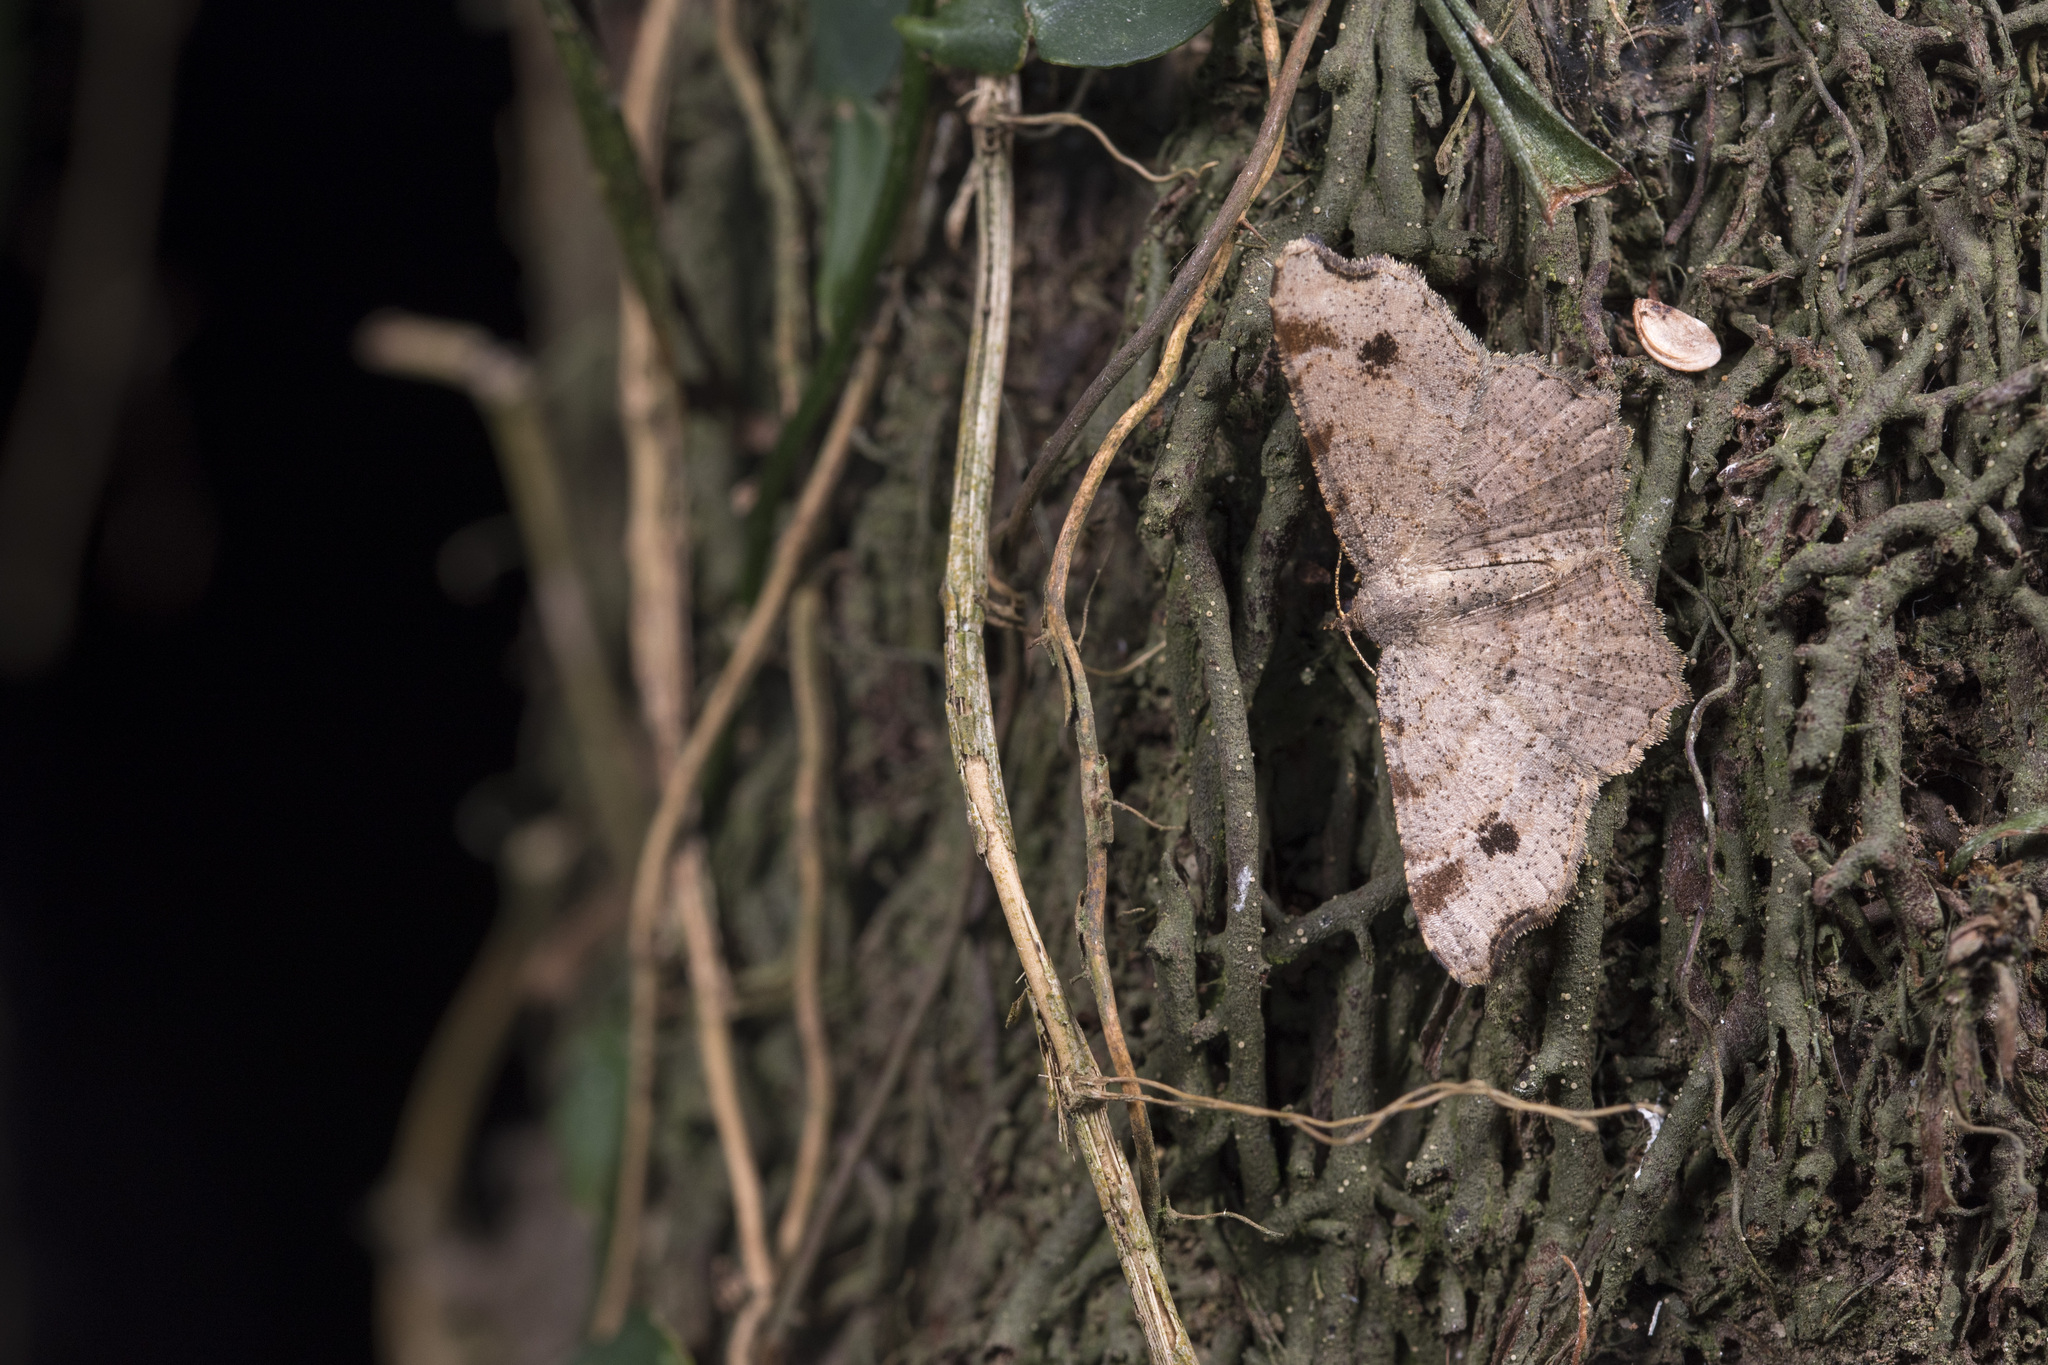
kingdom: Animalia
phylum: Arthropoda
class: Insecta
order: Lepidoptera
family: Geometridae
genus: Chiasmia
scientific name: Chiasmia kanshireiensis
